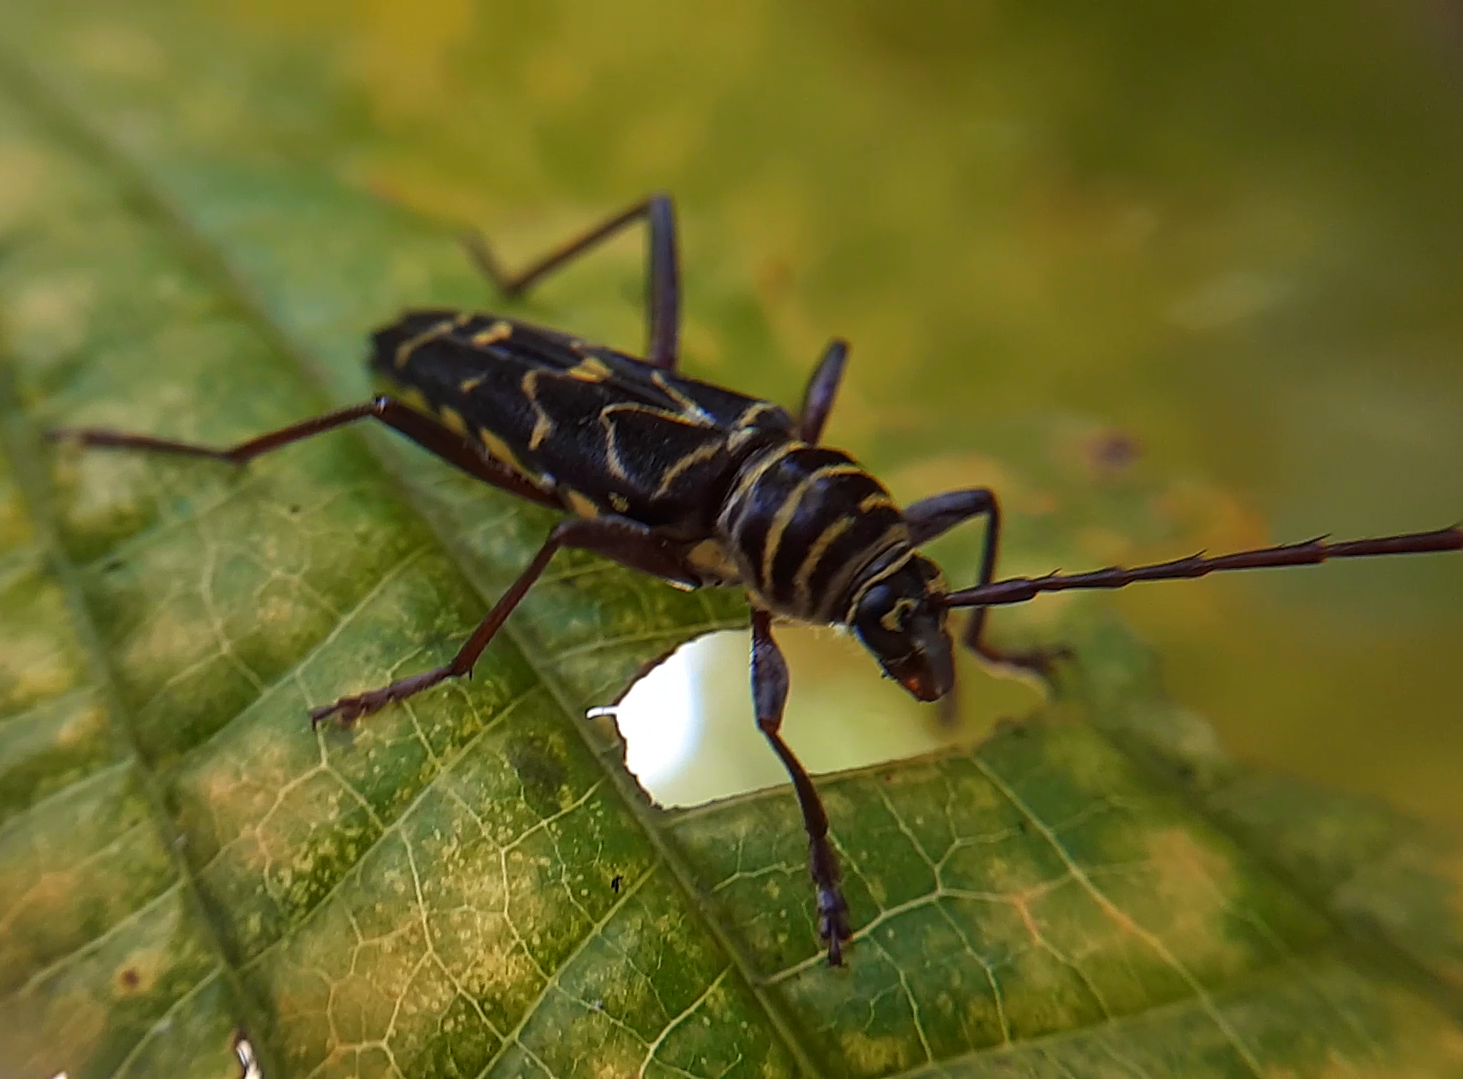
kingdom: Animalia
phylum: Arthropoda
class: Insecta
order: Coleoptera
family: Cerambycidae
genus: Megacyllene
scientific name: Megacyllene acuta
